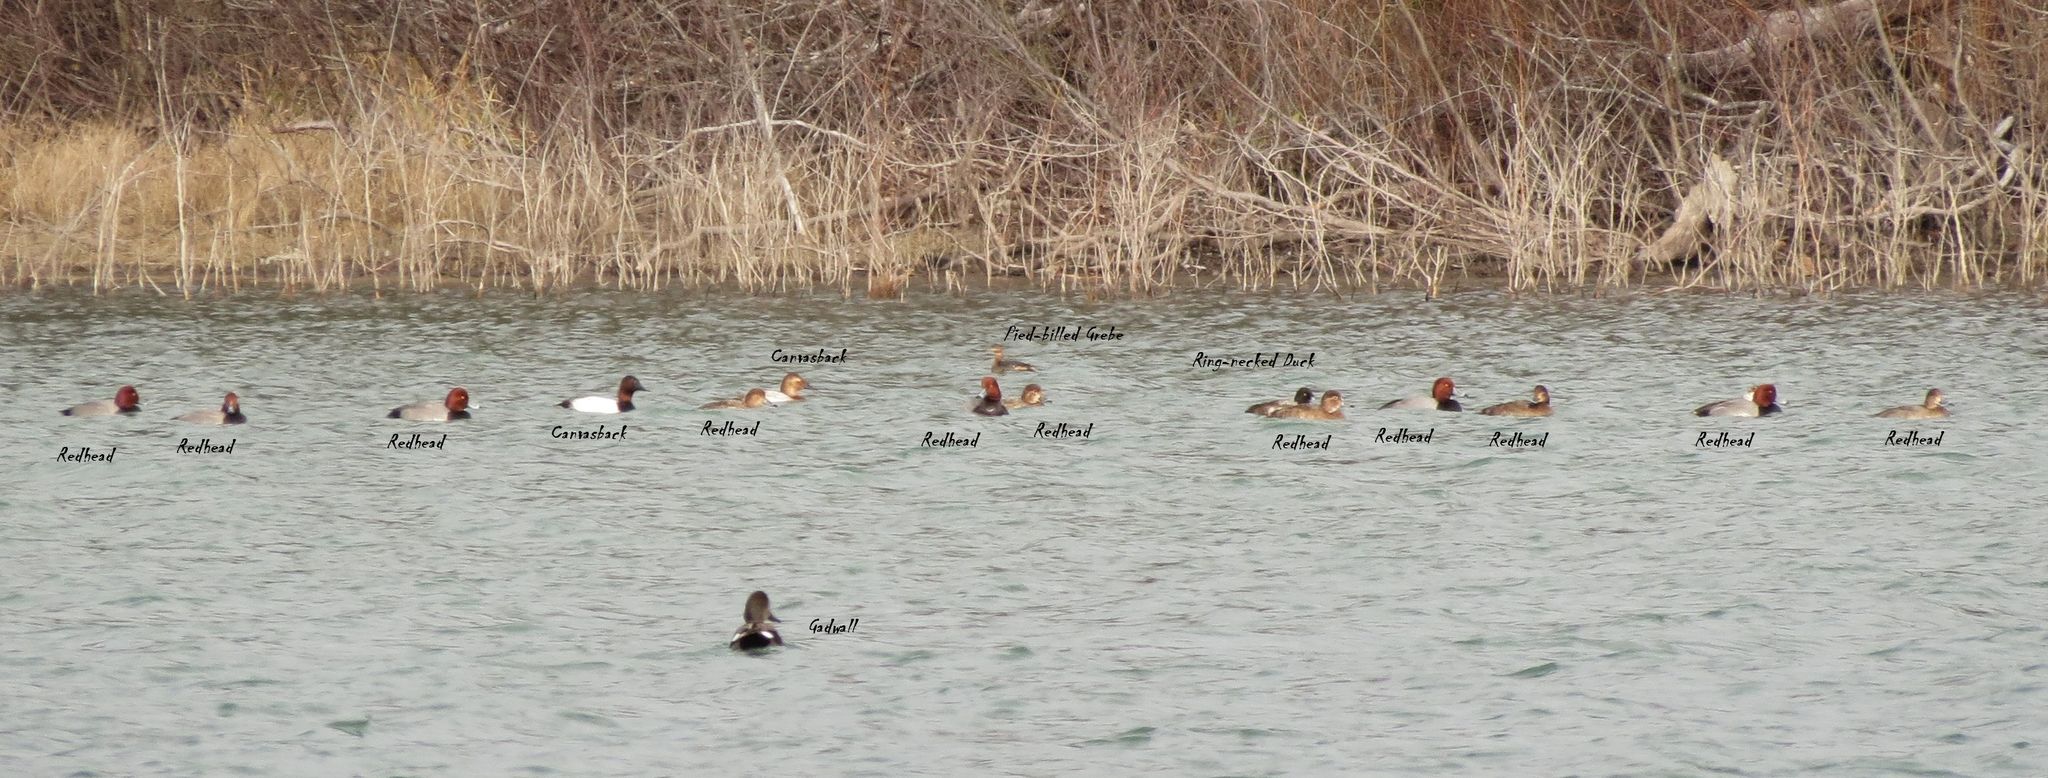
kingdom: Animalia
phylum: Chordata
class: Aves
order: Anseriformes
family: Anatidae
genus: Aythya
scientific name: Aythya valisineria
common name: Canvasback
